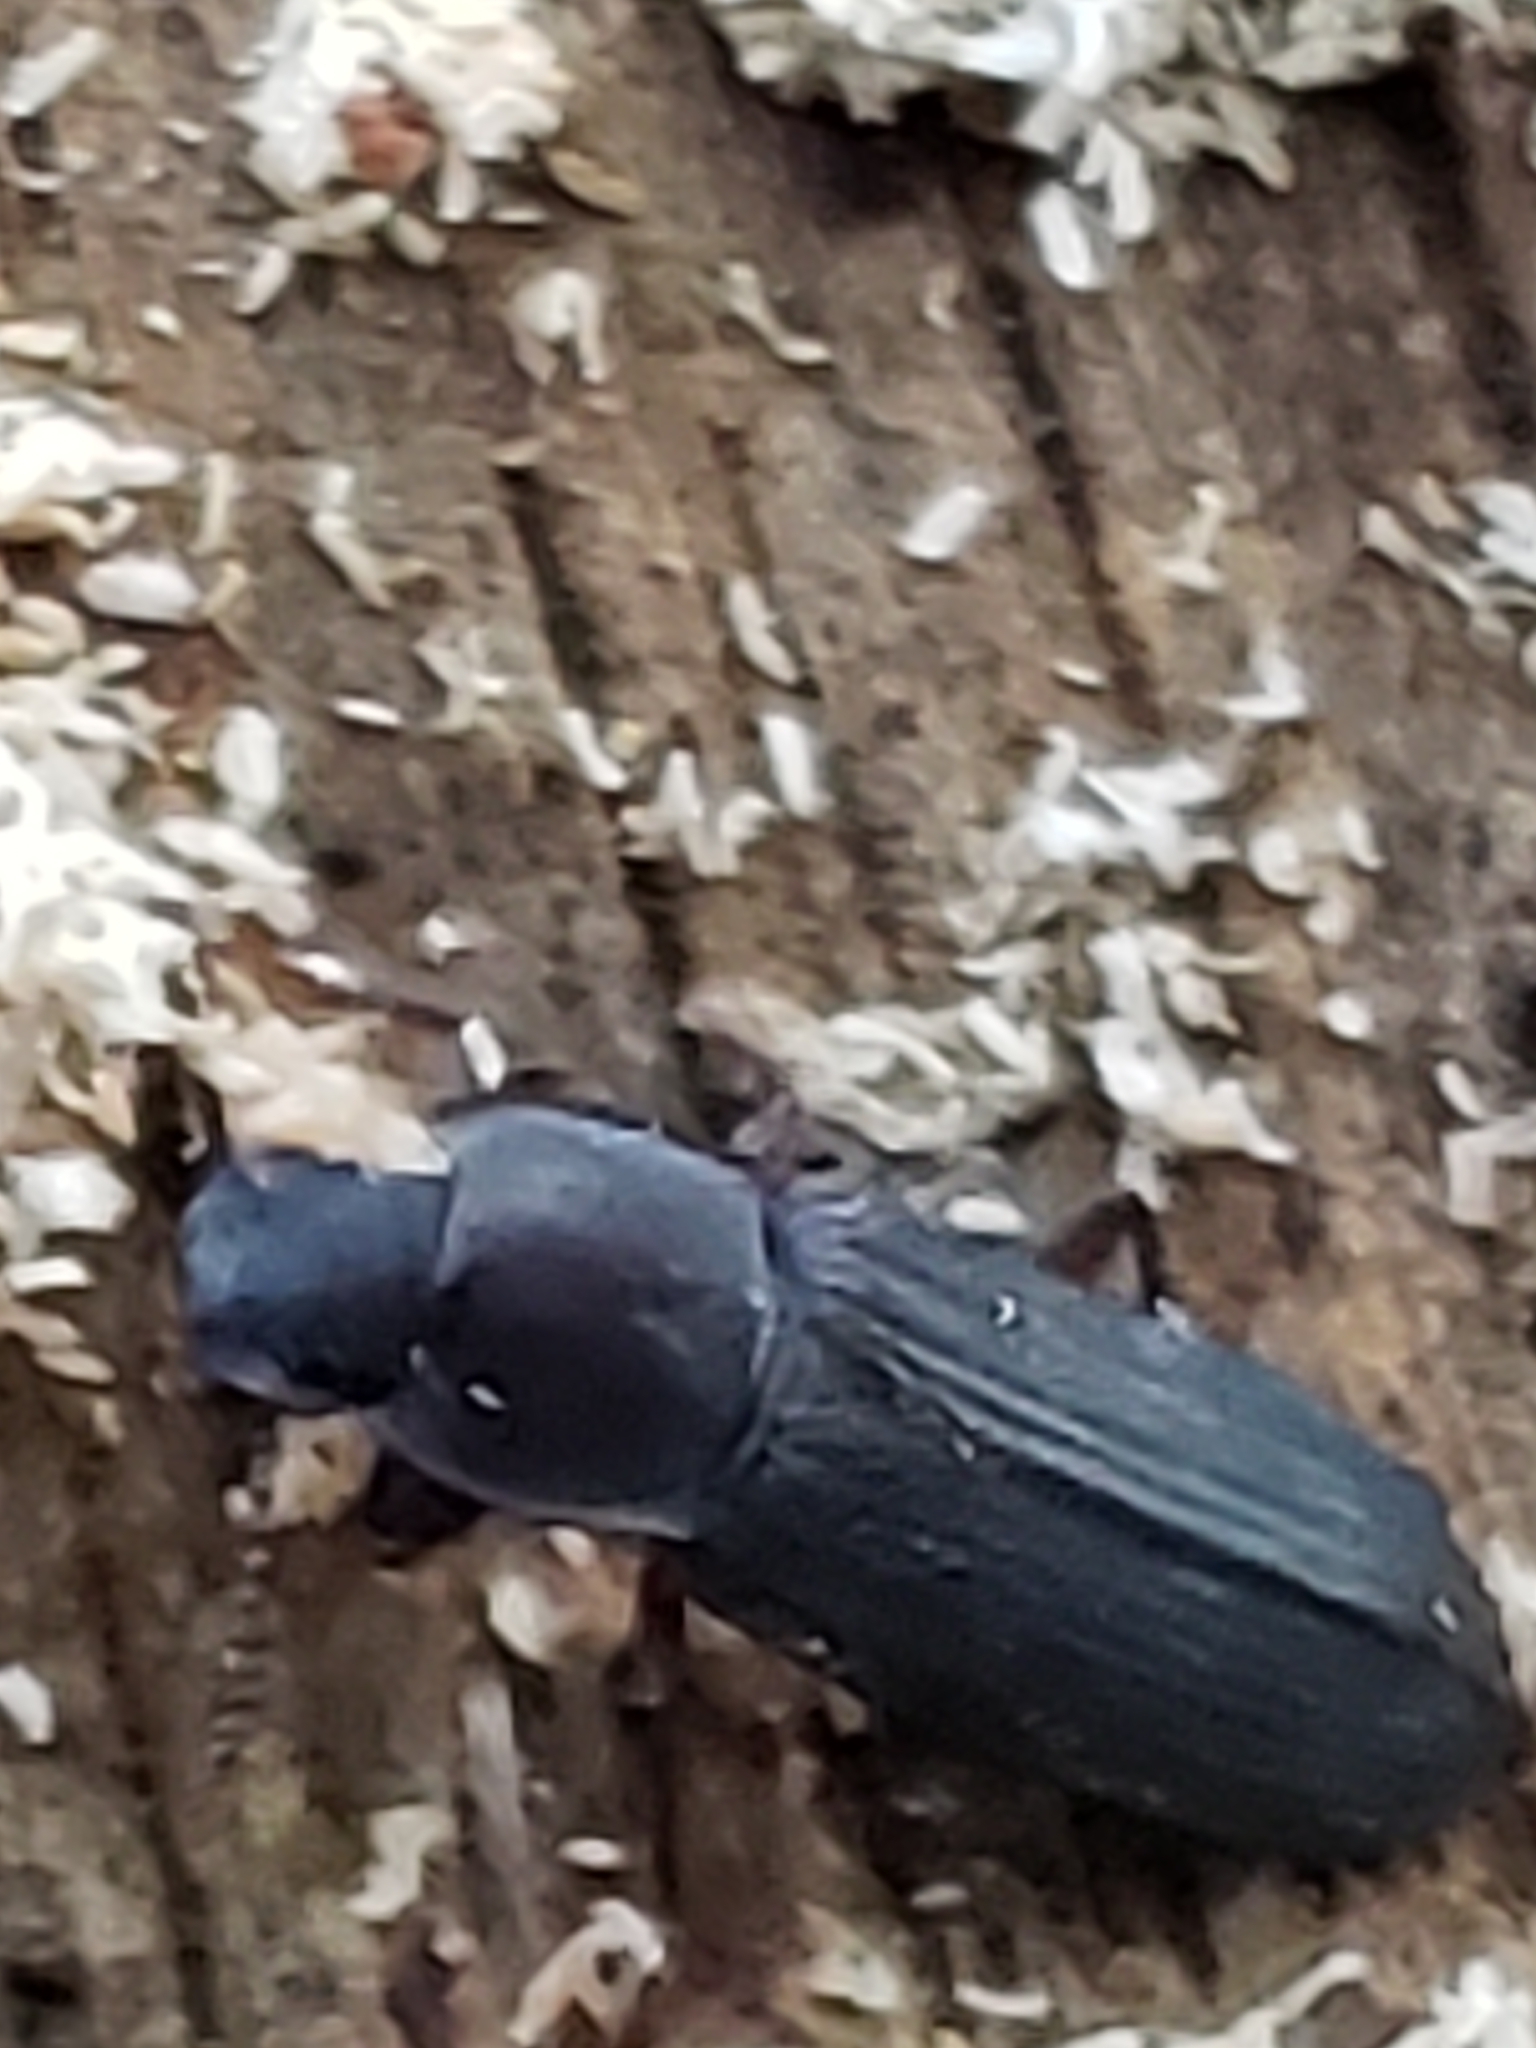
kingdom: Animalia
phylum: Arthropoda
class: Insecta
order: Coleoptera
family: Tenebrionidae
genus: Idiobates
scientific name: Idiobates castaneus
